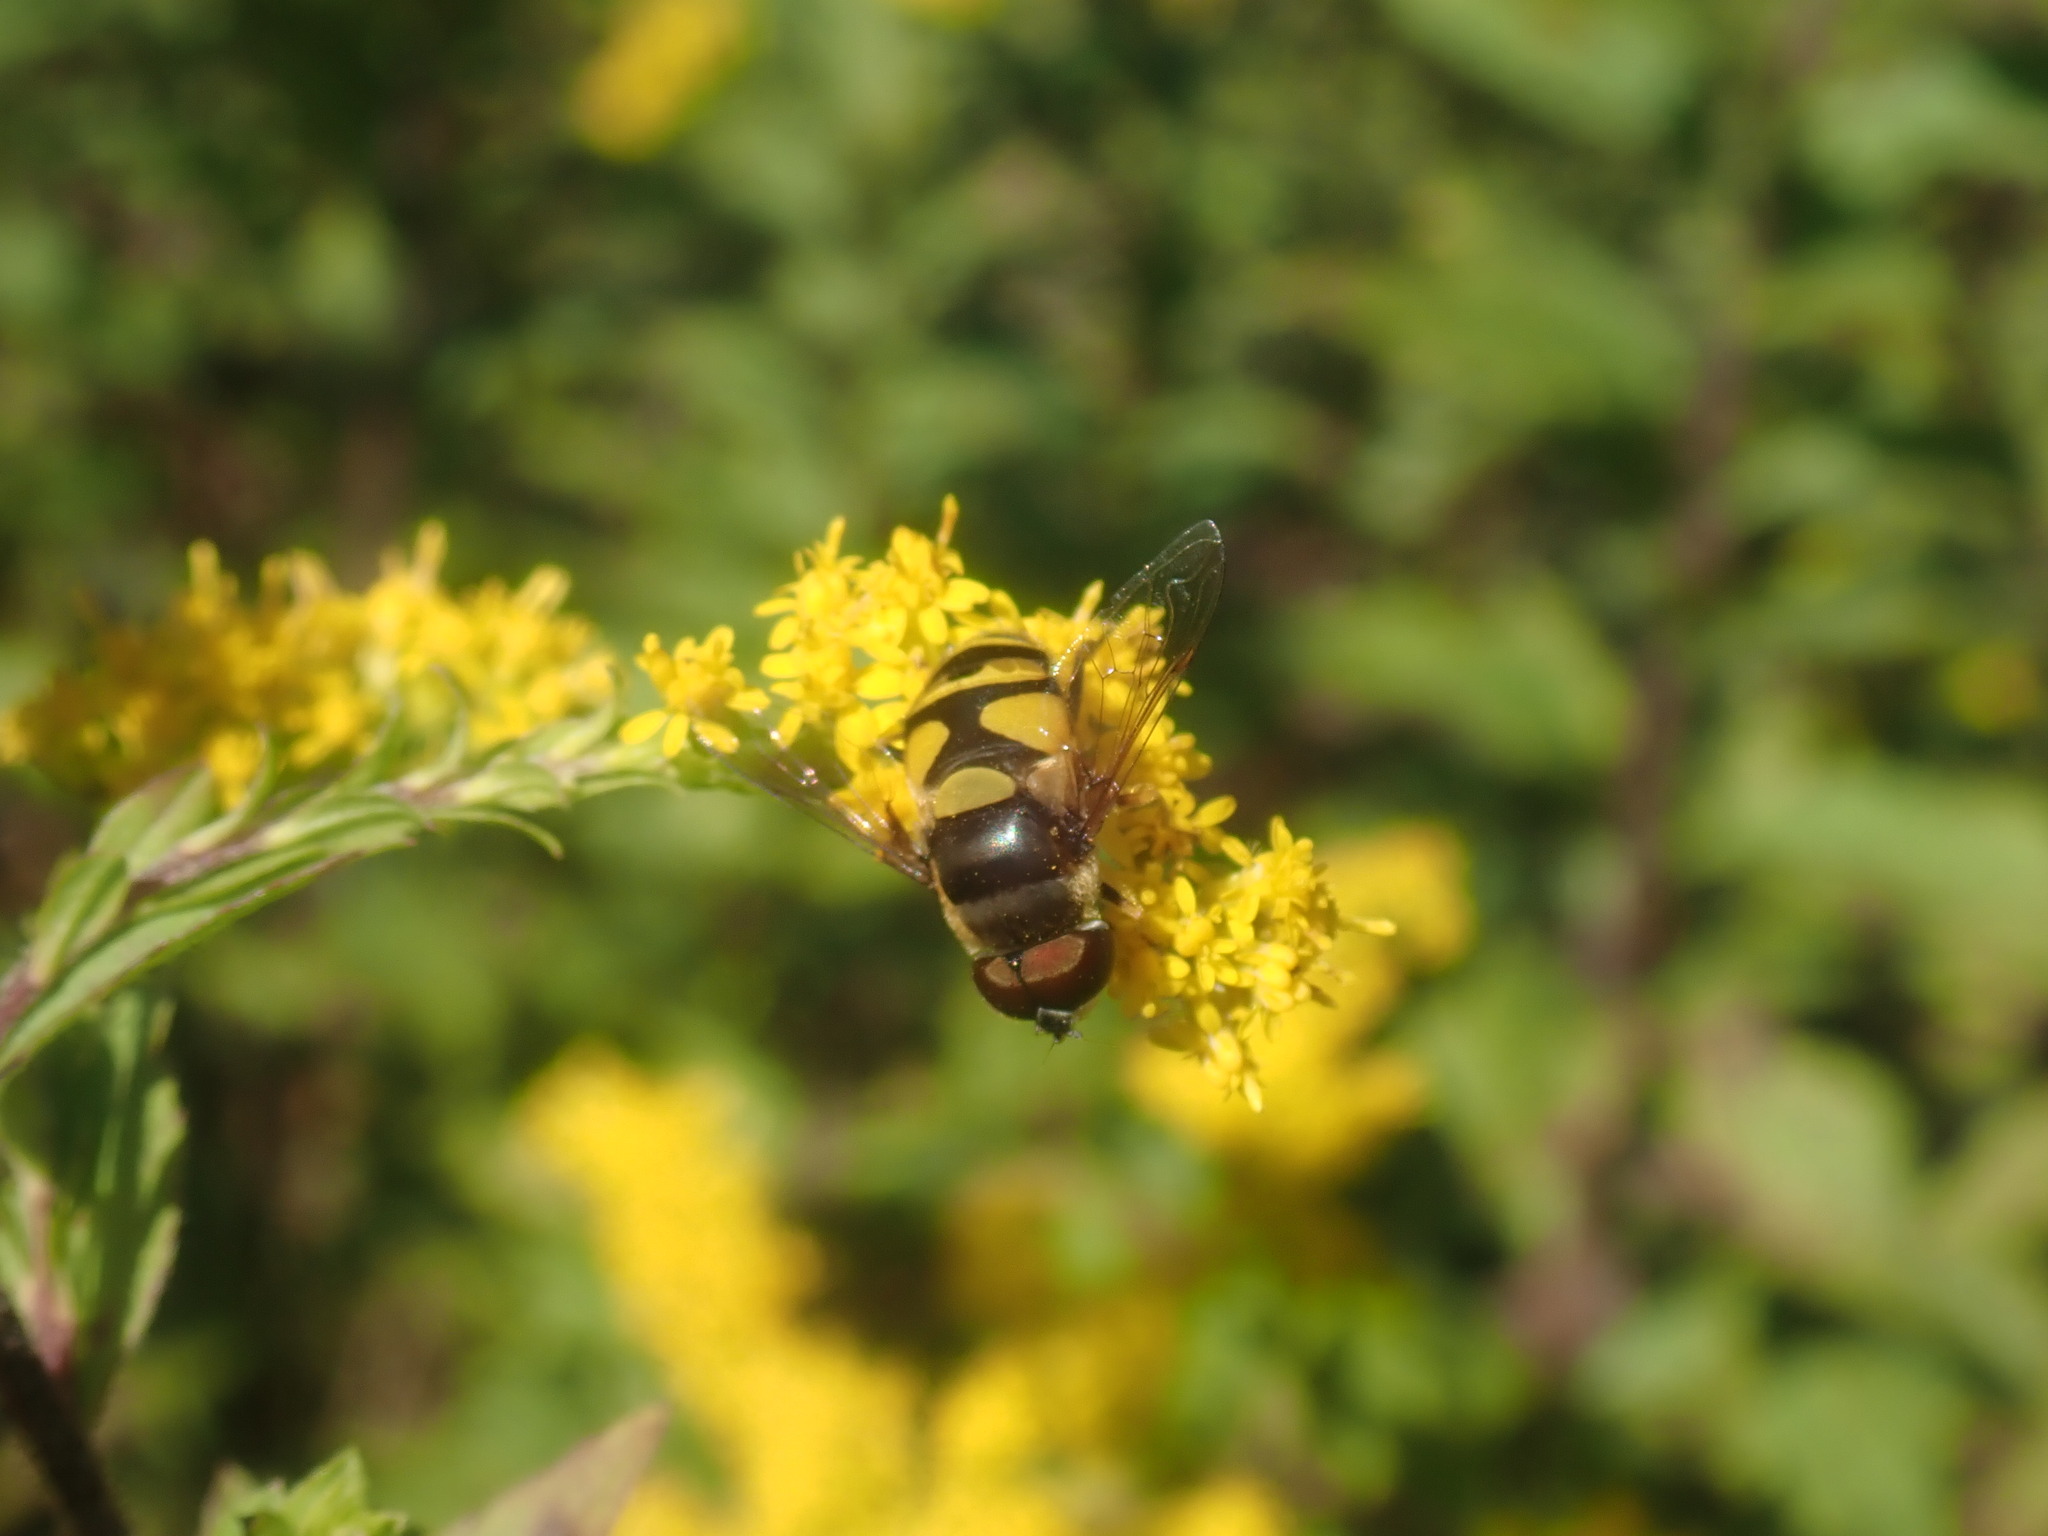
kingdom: Animalia
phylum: Arthropoda
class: Insecta
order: Diptera
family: Syrphidae
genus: Eristalis
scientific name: Eristalis transversa
